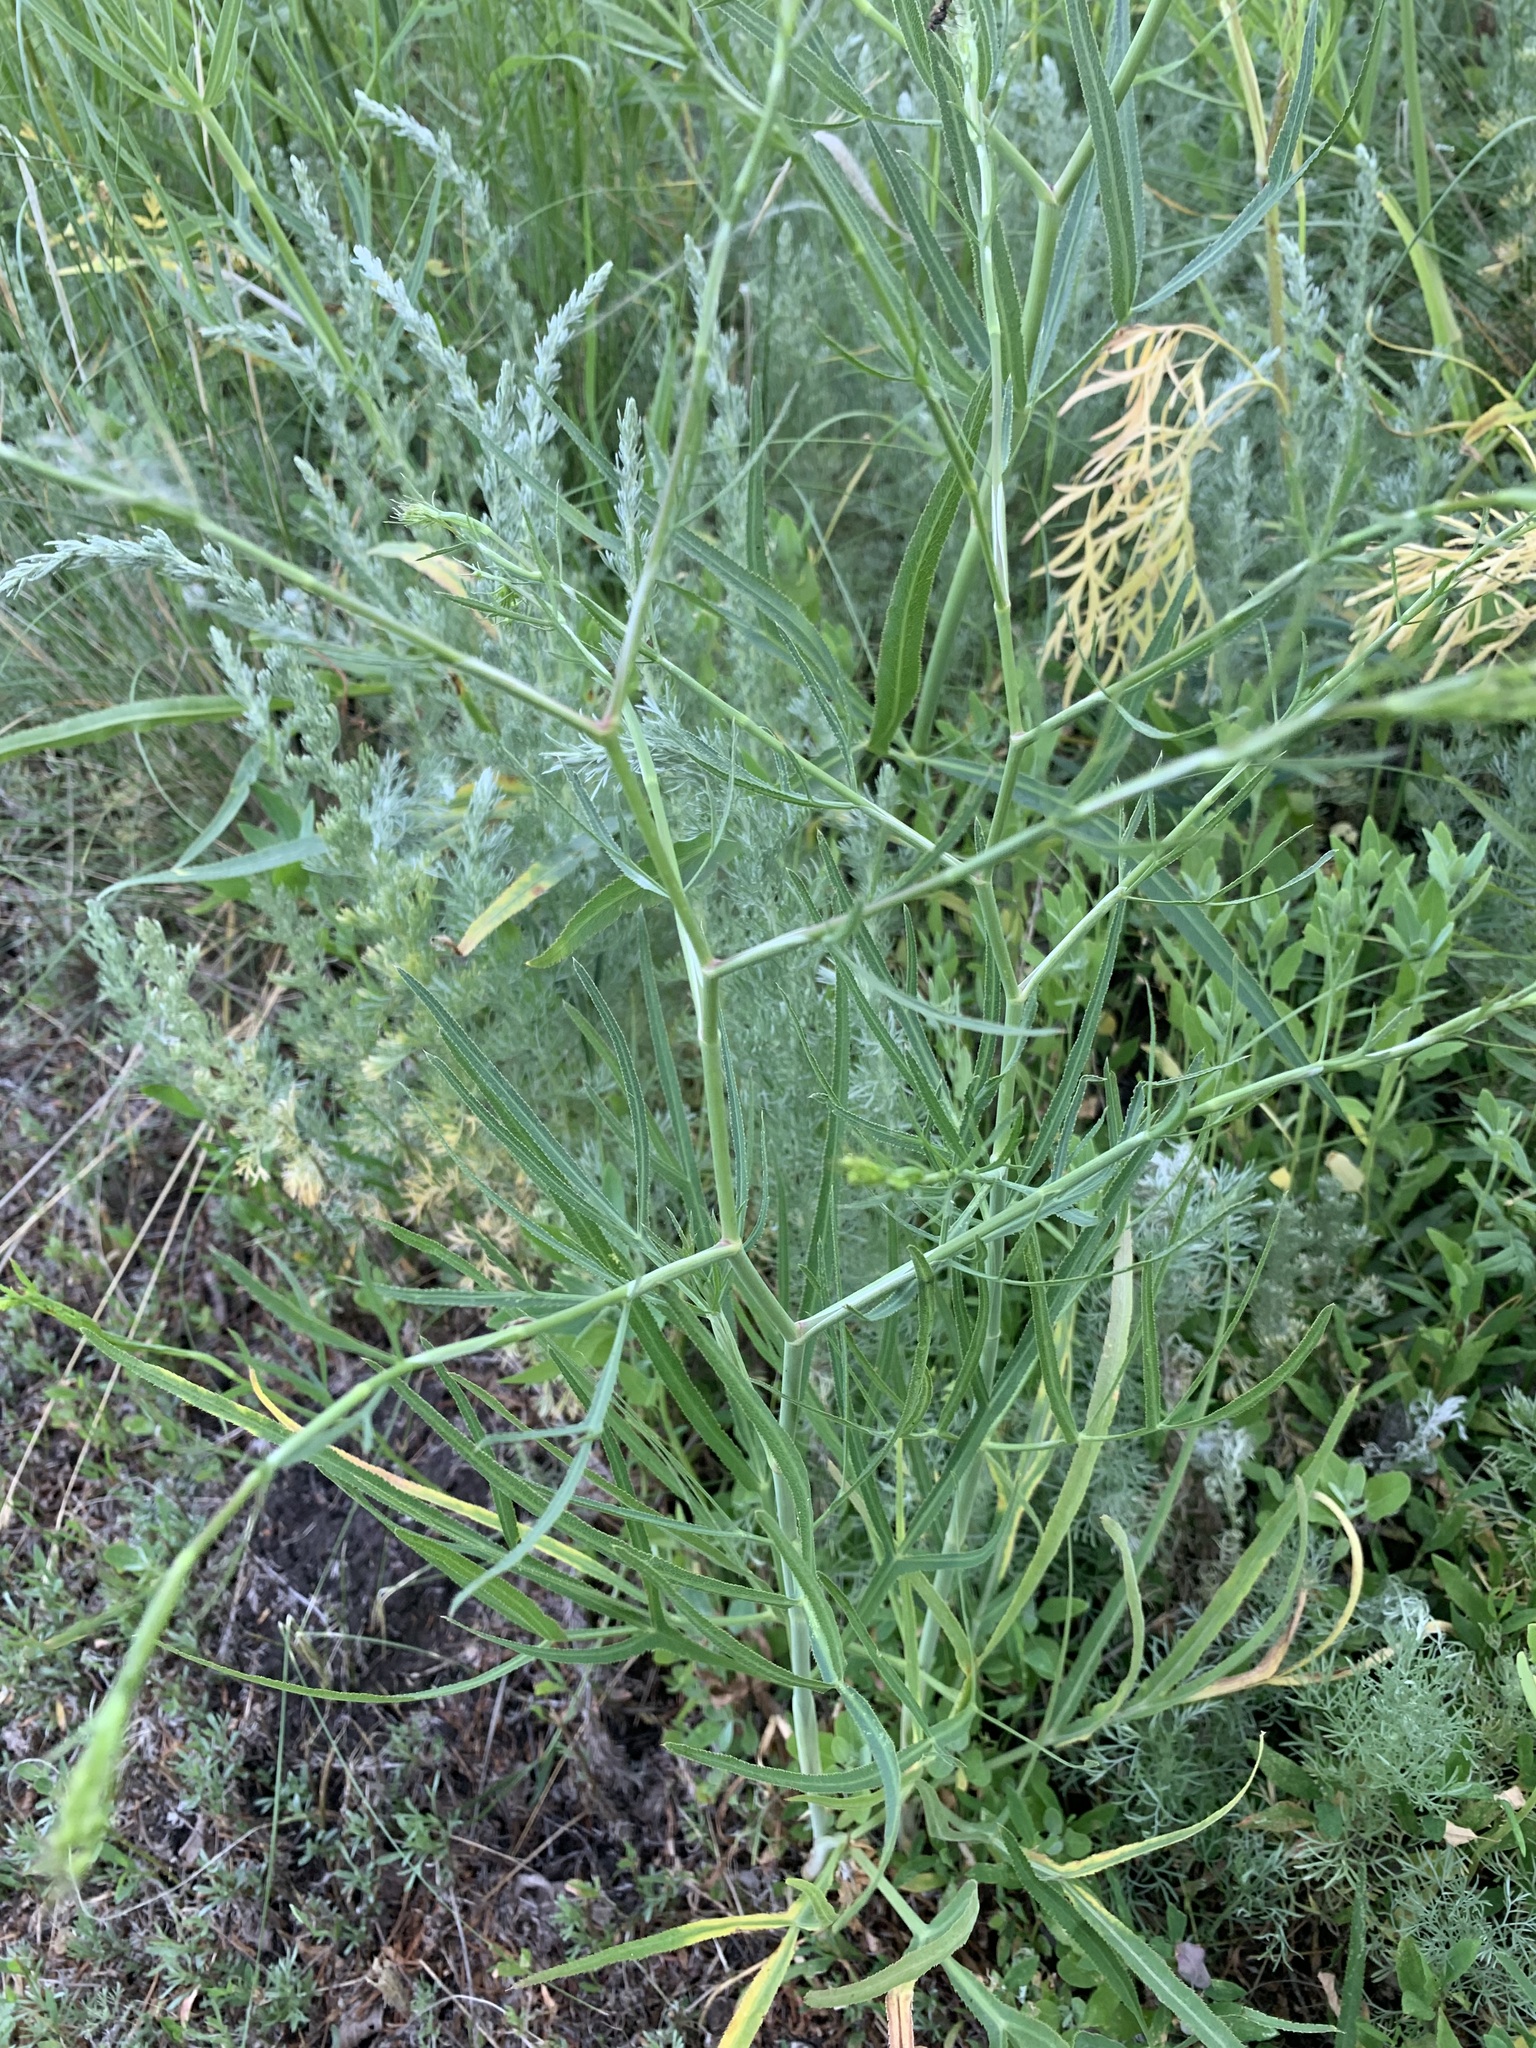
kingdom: Plantae
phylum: Tracheophyta
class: Magnoliopsida
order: Apiales
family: Apiaceae
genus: Falcaria
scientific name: Falcaria vulgaris
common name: Longleaf
